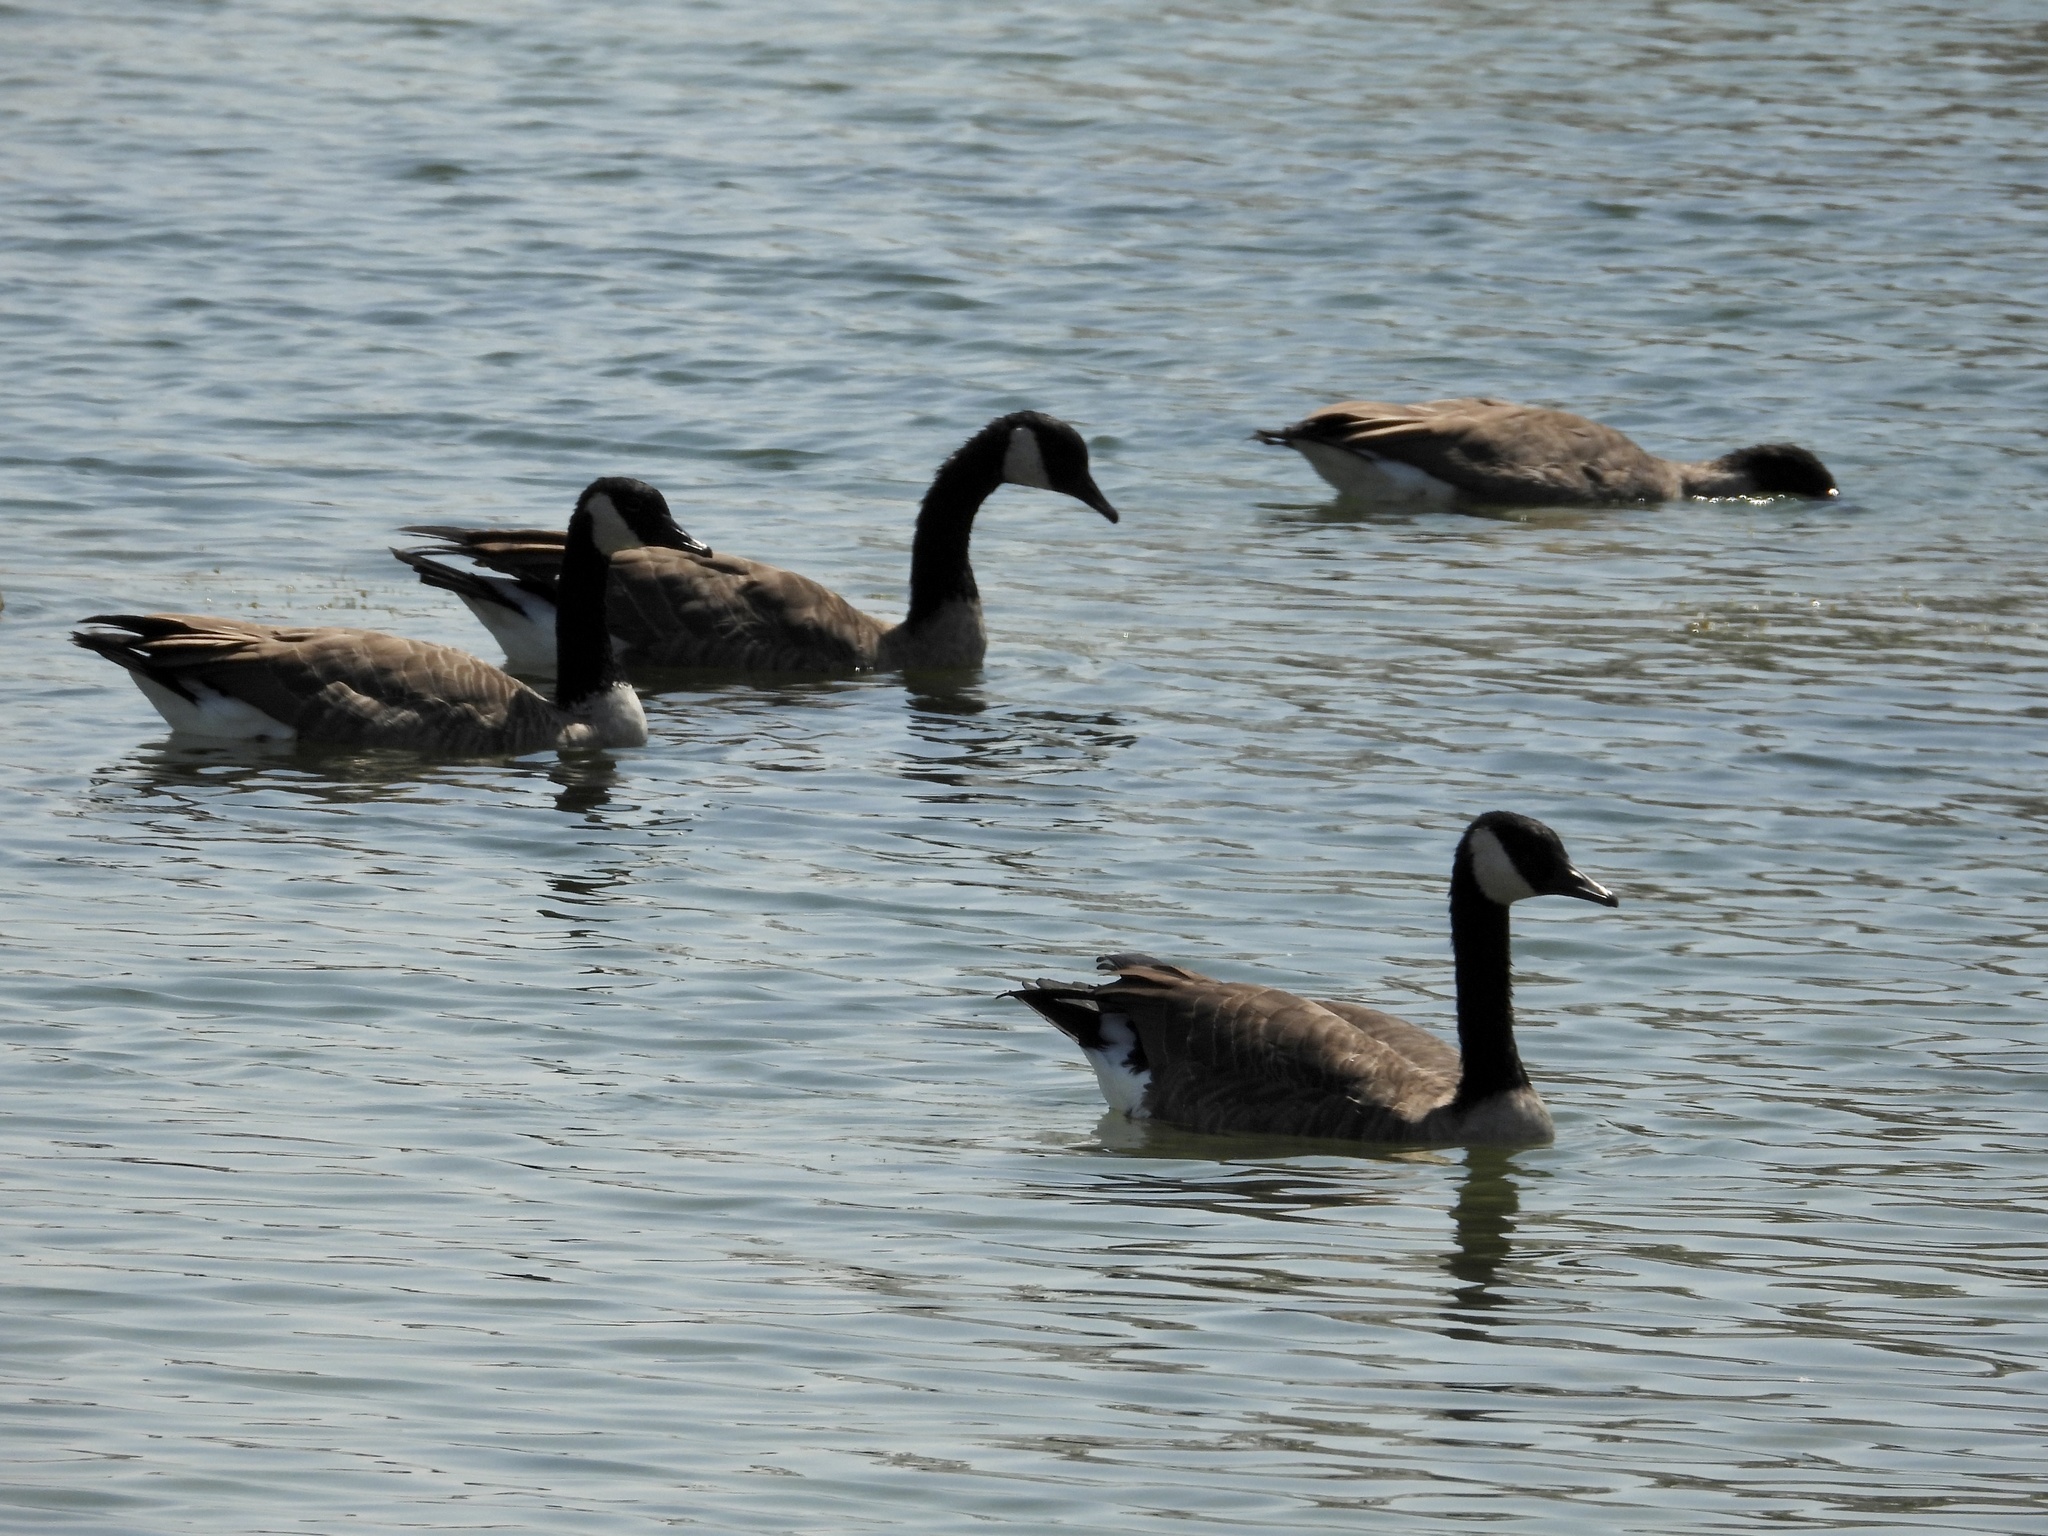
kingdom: Animalia
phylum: Chordata
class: Aves
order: Anseriformes
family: Anatidae
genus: Branta
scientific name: Branta canadensis
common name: Canada goose
